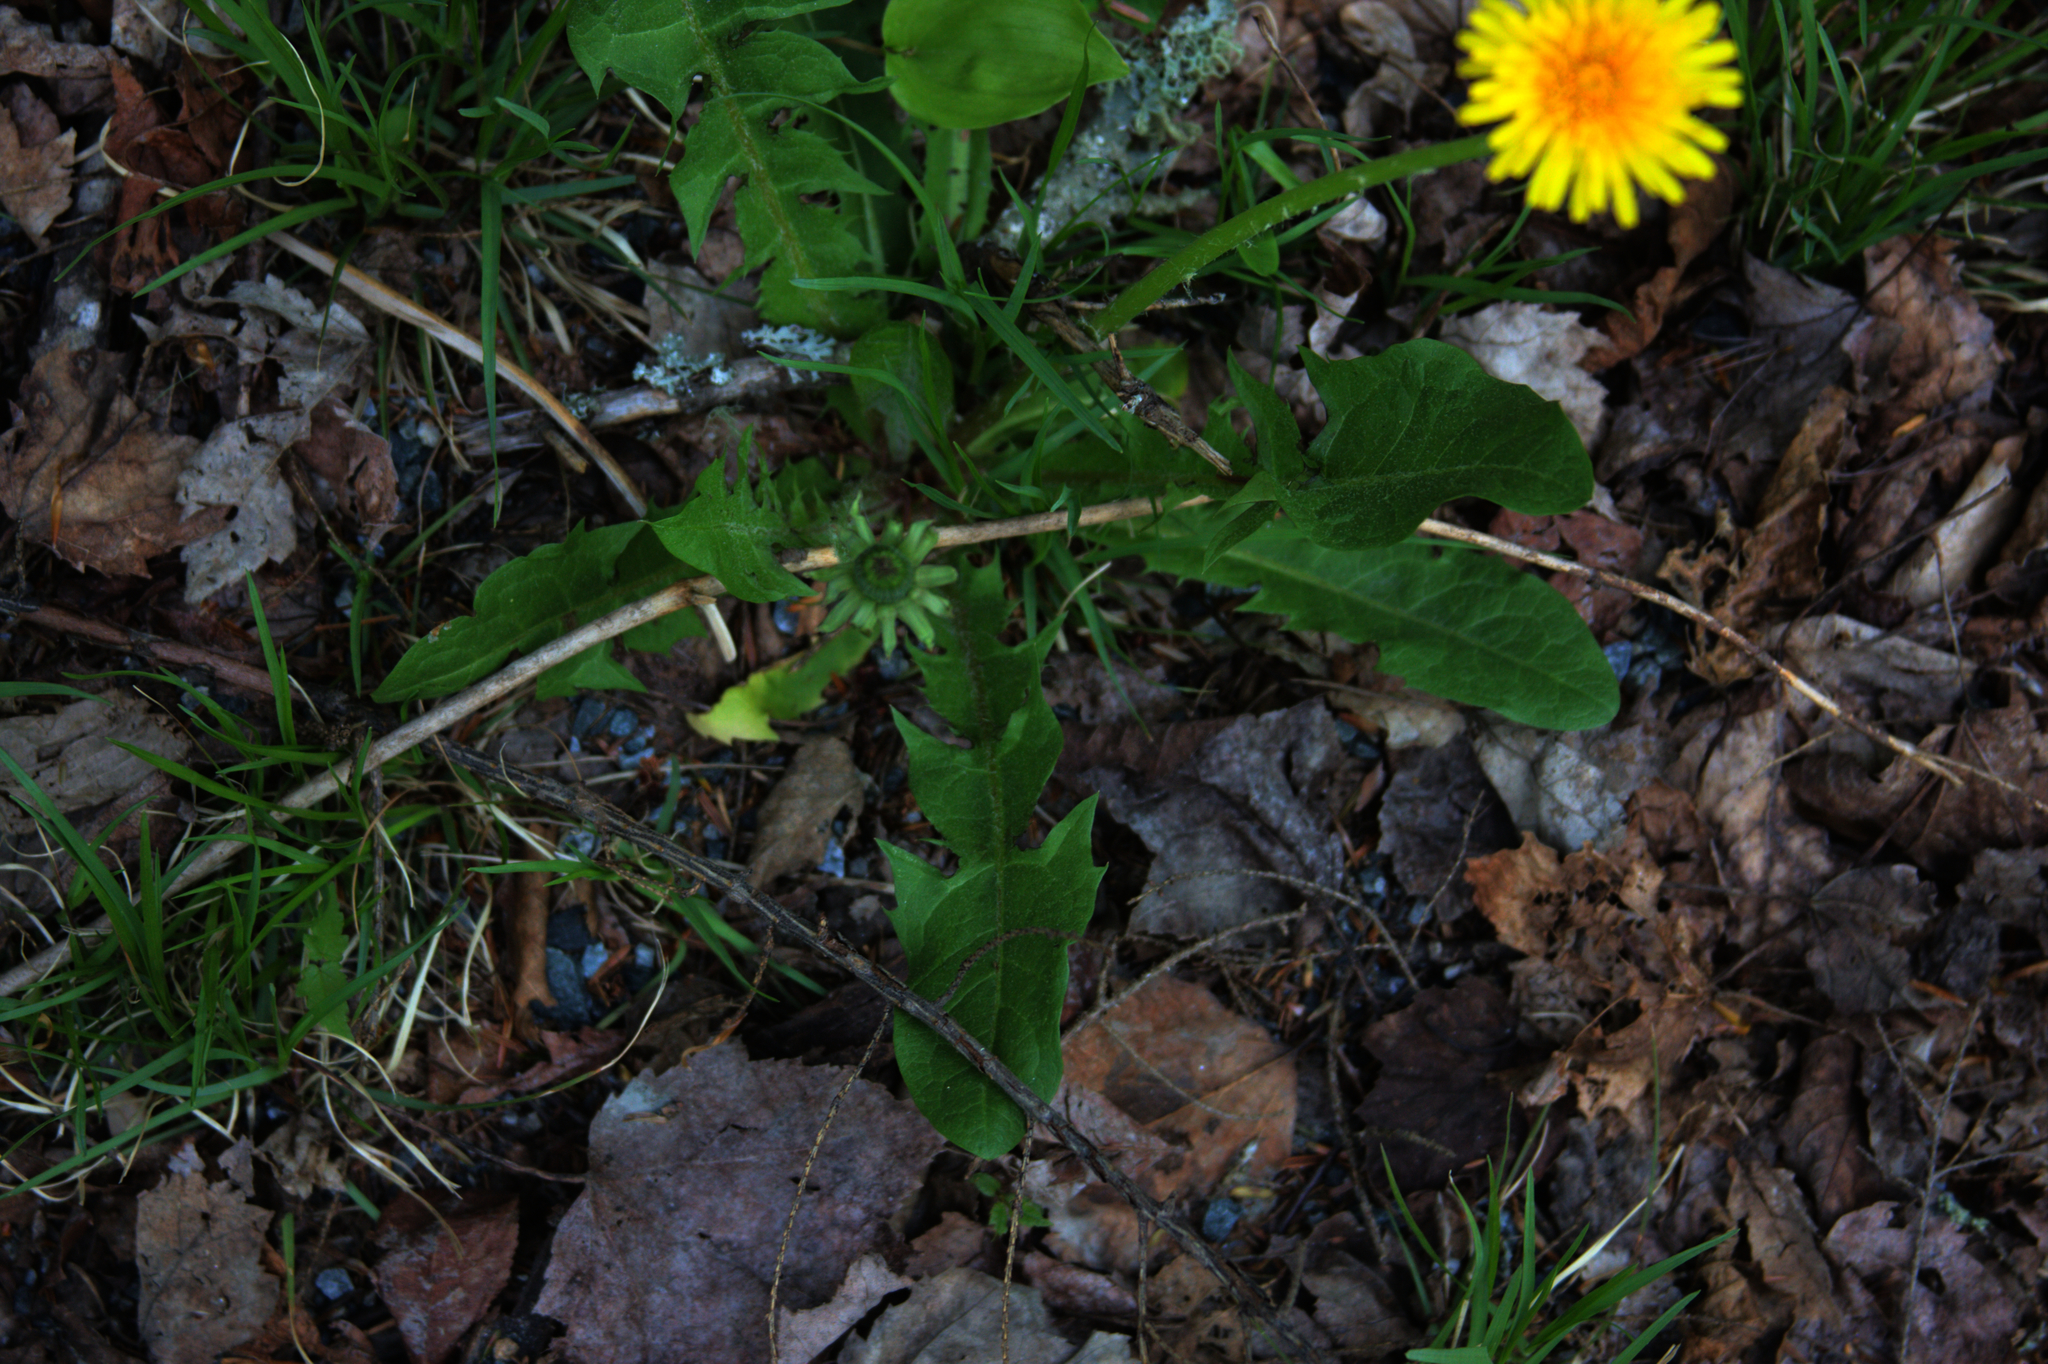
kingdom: Plantae
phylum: Tracheophyta
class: Magnoliopsida
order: Asterales
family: Asteraceae
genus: Taraxacum
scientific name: Taraxacum officinale
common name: Common dandelion
